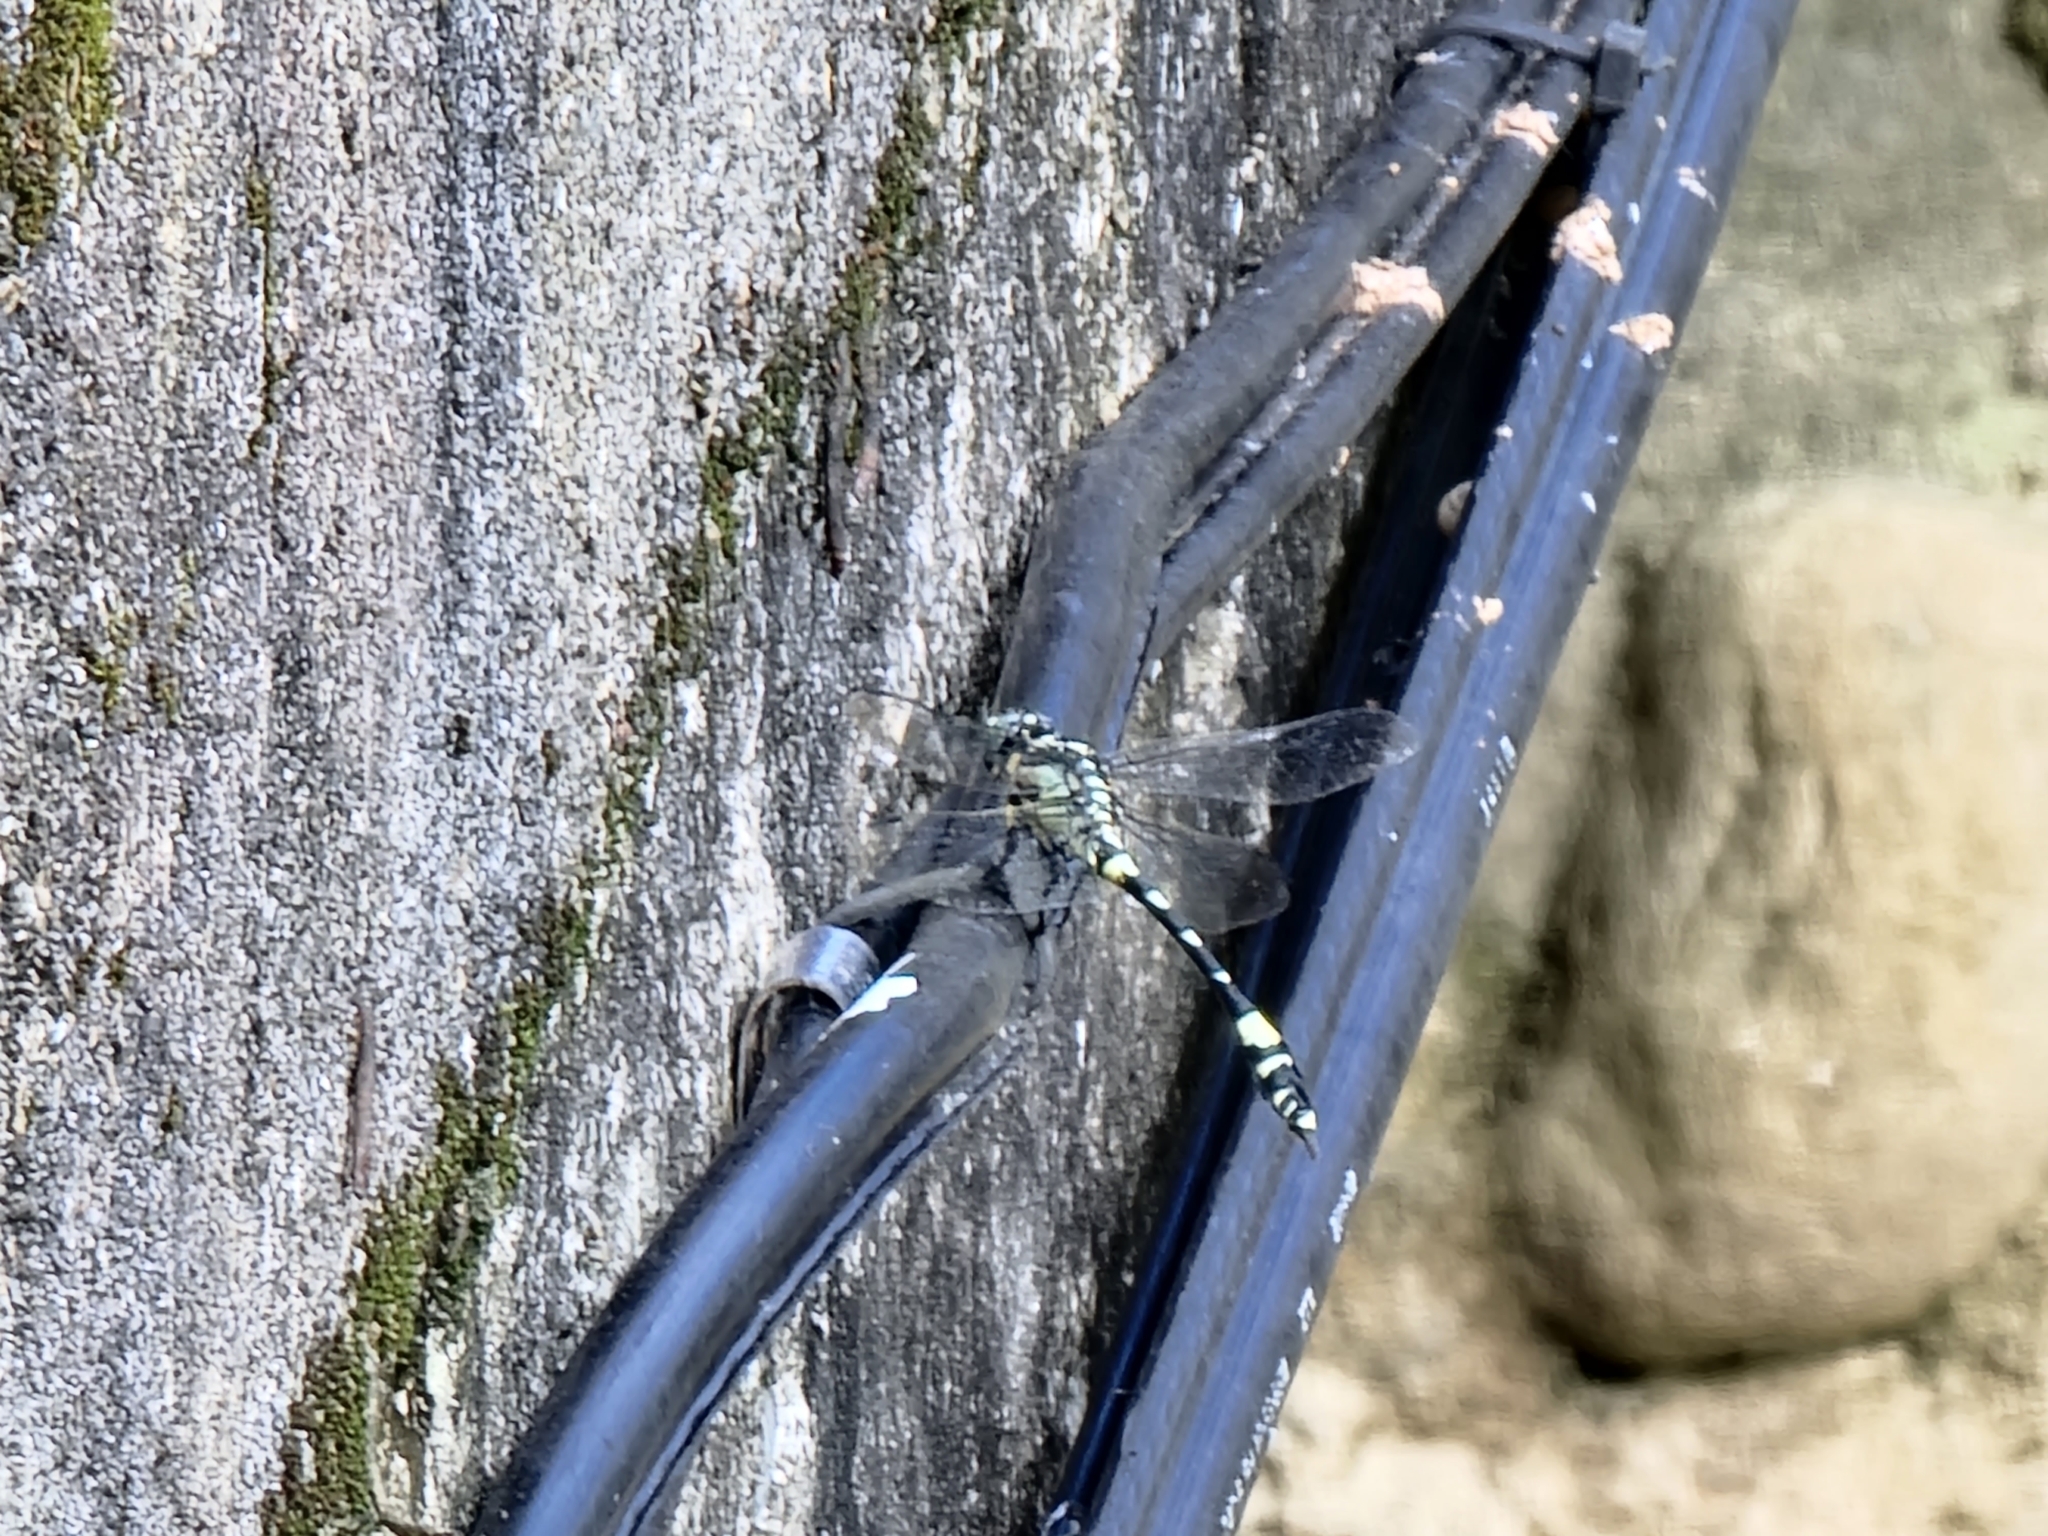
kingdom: Animalia
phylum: Arthropoda
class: Insecta
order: Odonata
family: Gomphidae
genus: Gomphidia
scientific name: Gomphidia confluens
